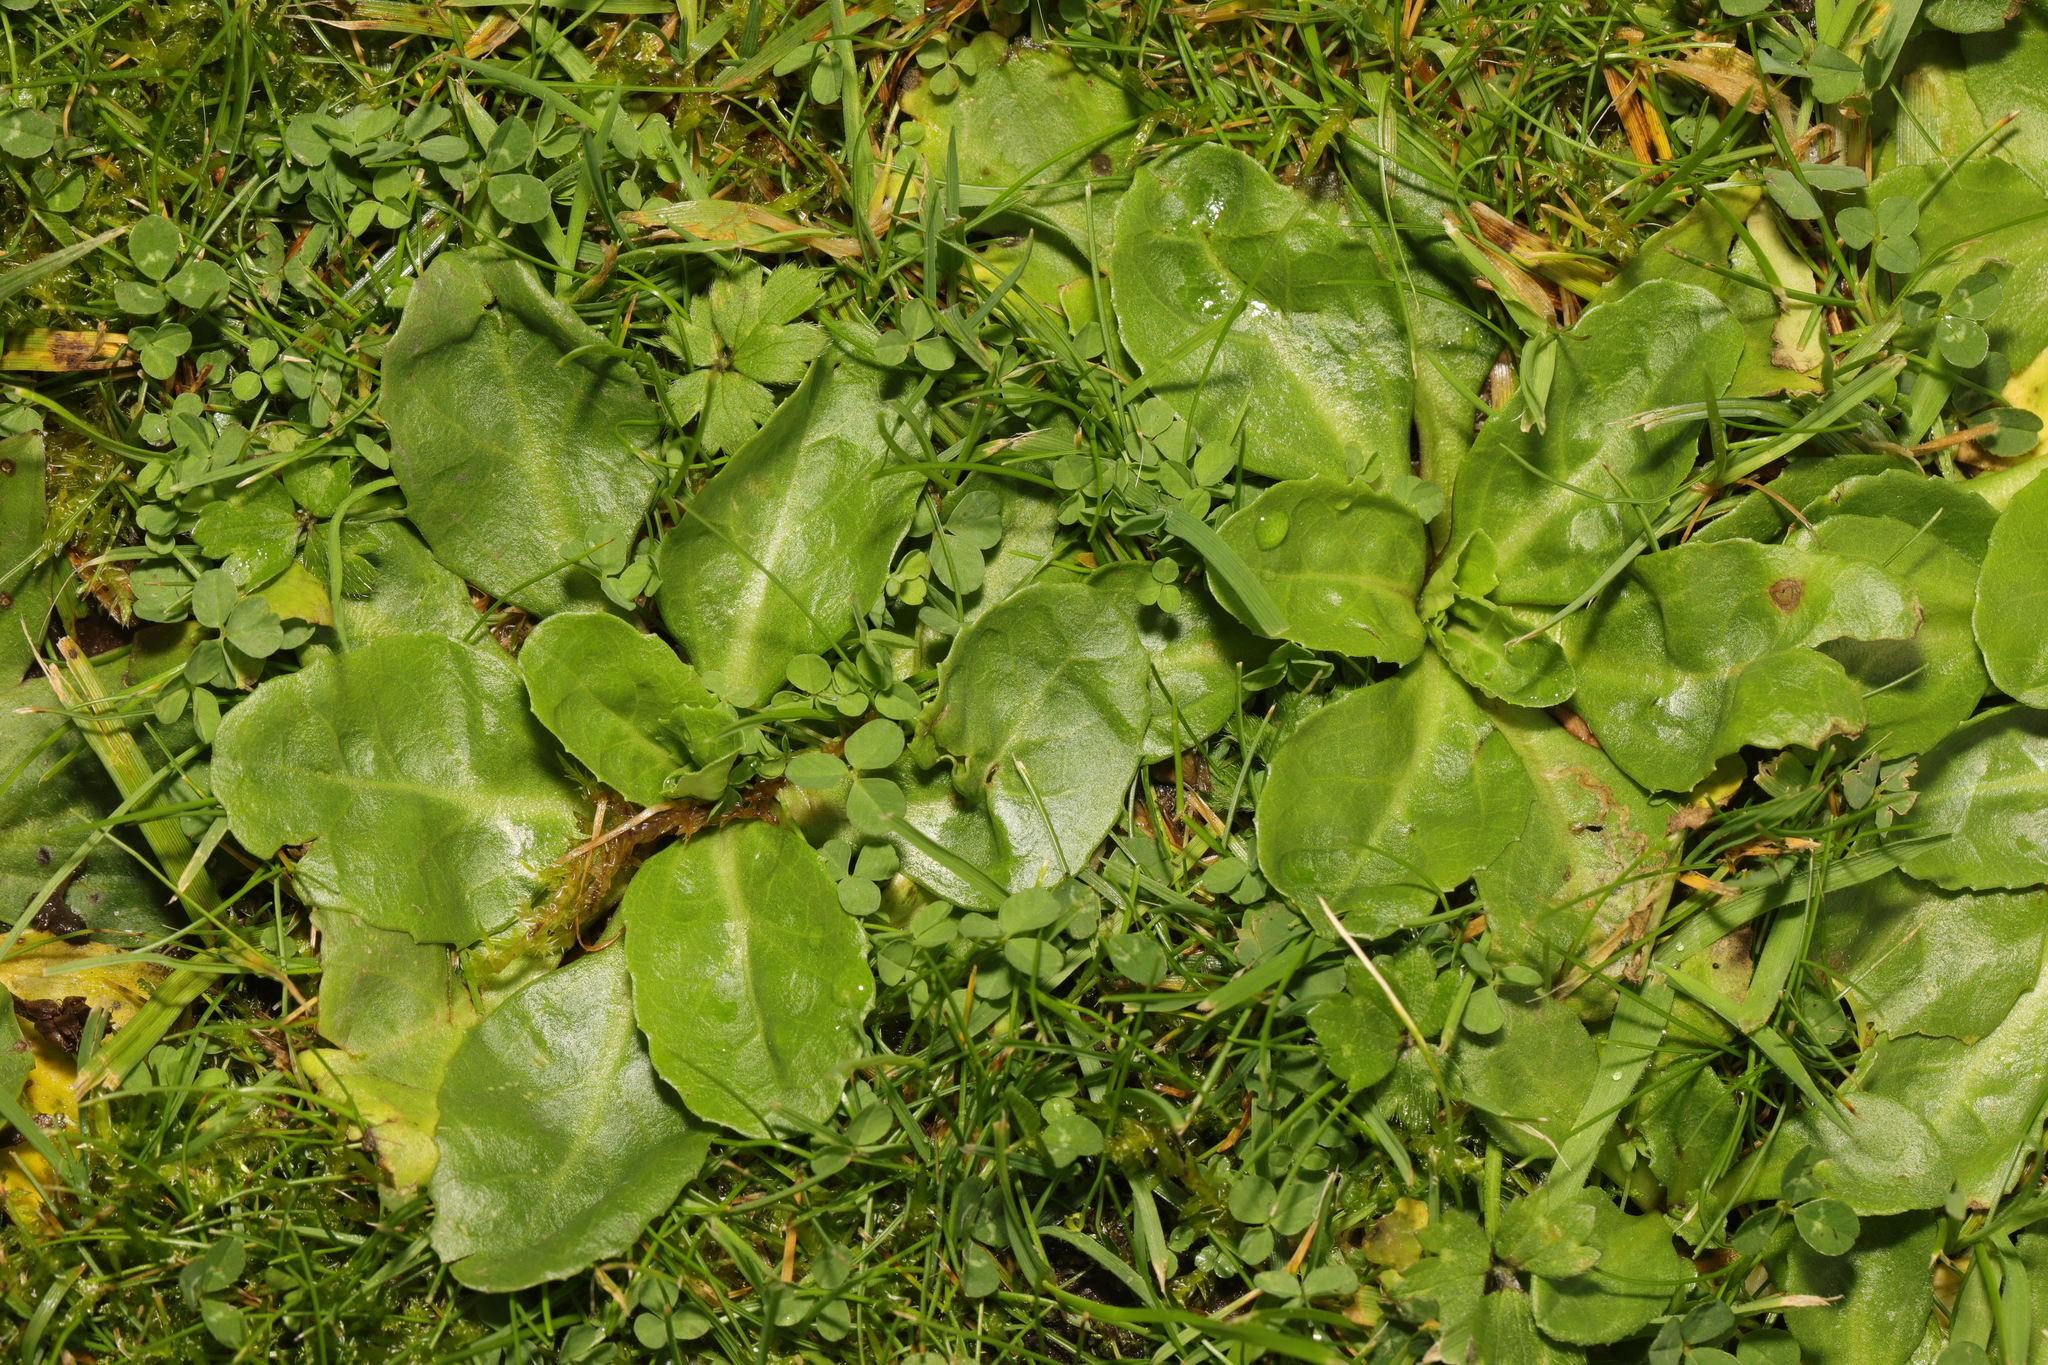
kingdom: Plantae
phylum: Tracheophyta
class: Magnoliopsida
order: Asterales
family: Asteraceae
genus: Bellis
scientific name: Bellis perennis
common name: Lawndaisy
